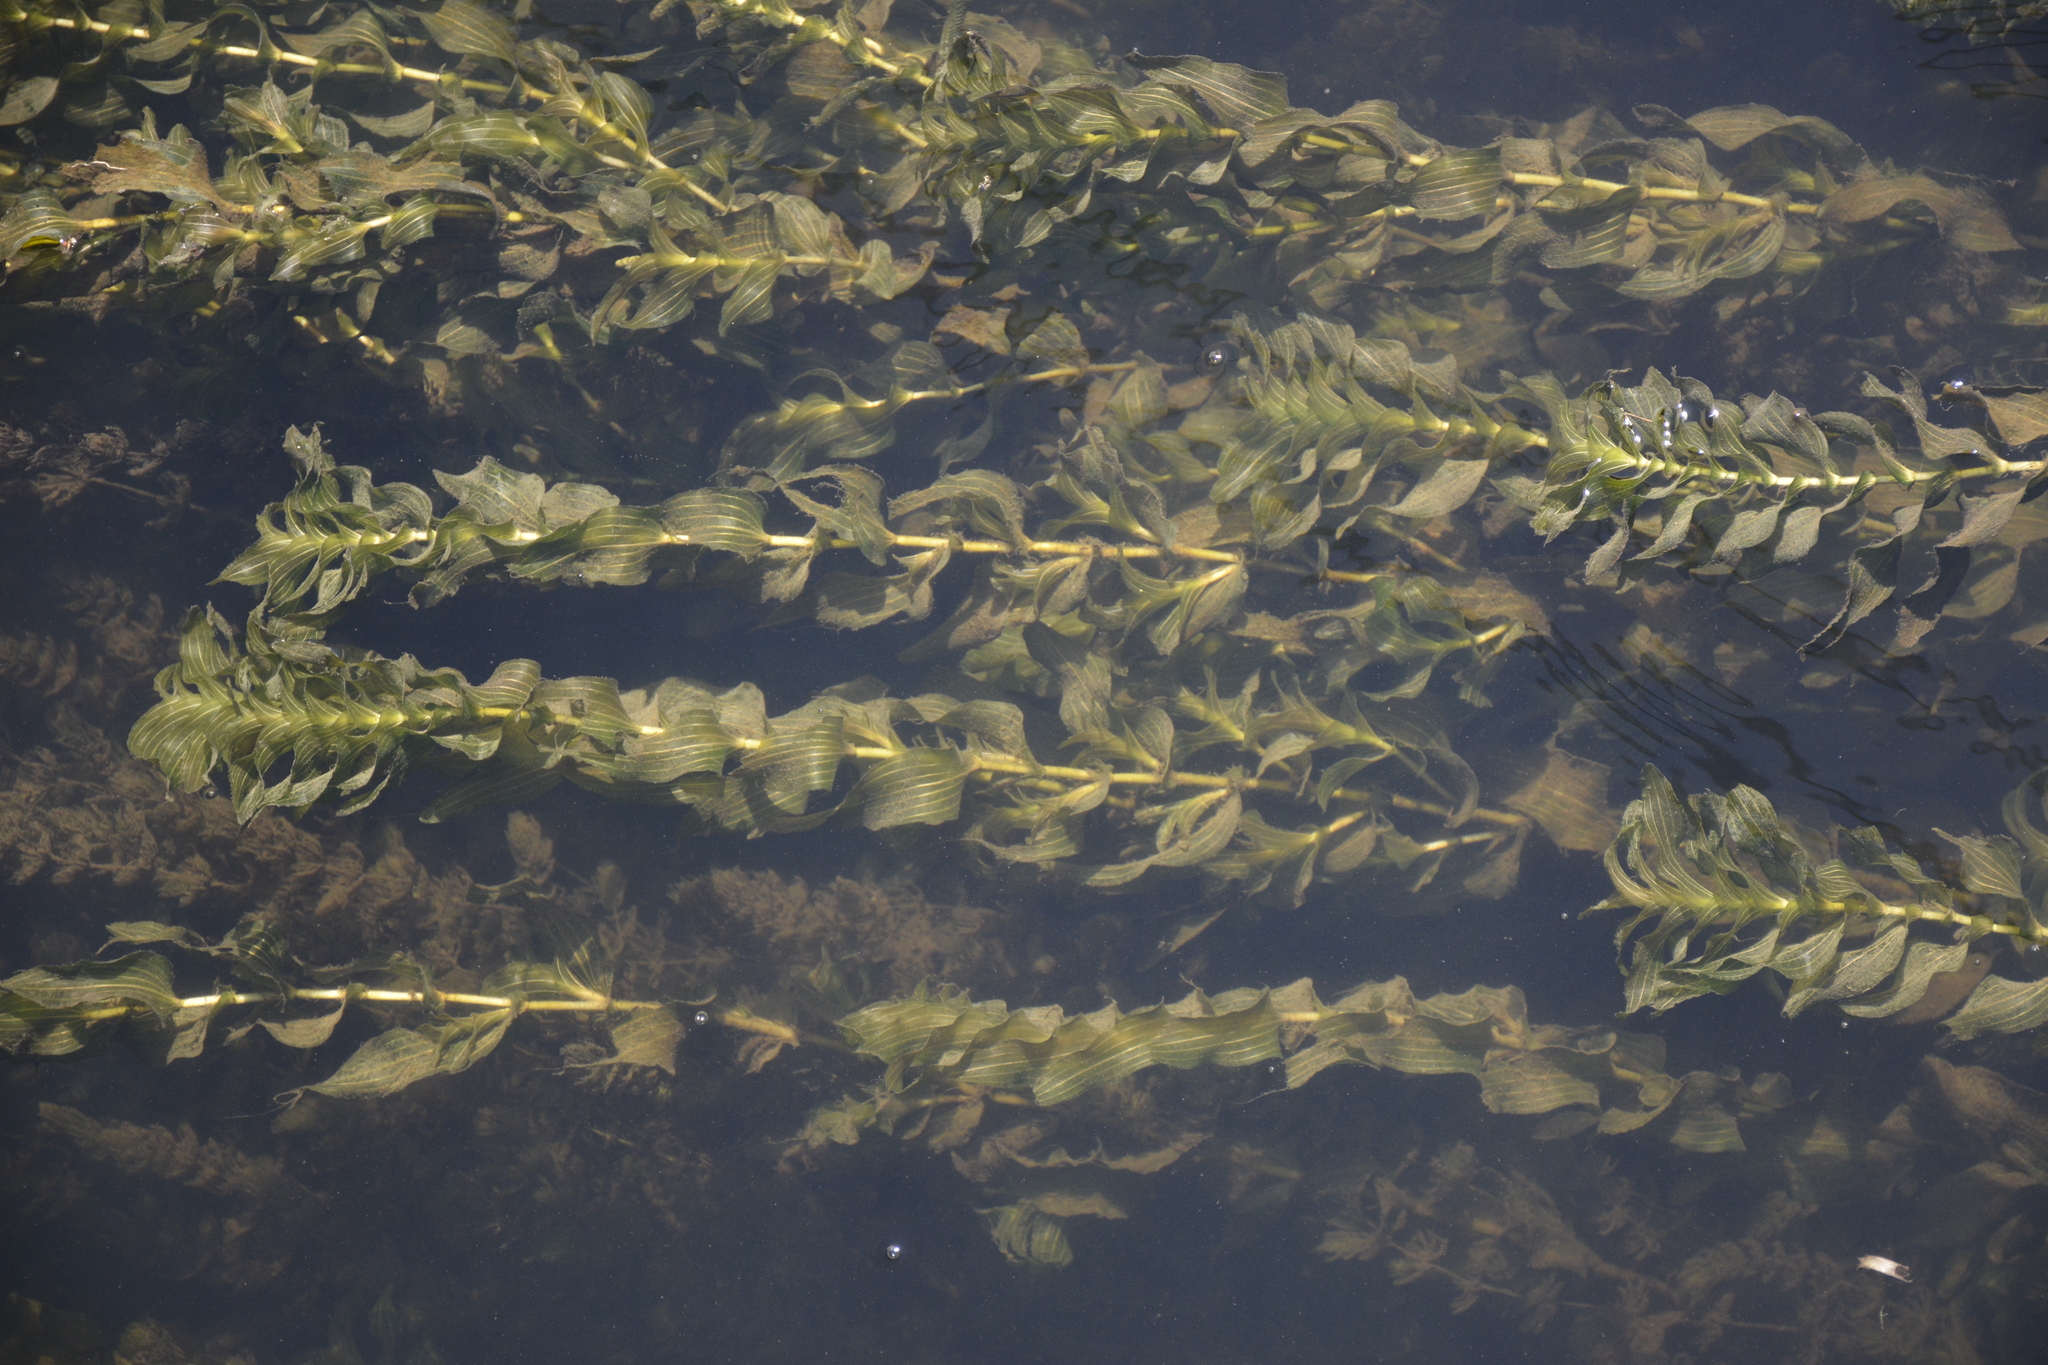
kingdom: Plantae
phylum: Tracheophyta
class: Liliopsida
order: Alismatales
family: Potamogetonaceae
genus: Potamogeton
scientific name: Potamogeton perfoliatus
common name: Perfoliate pondweed
